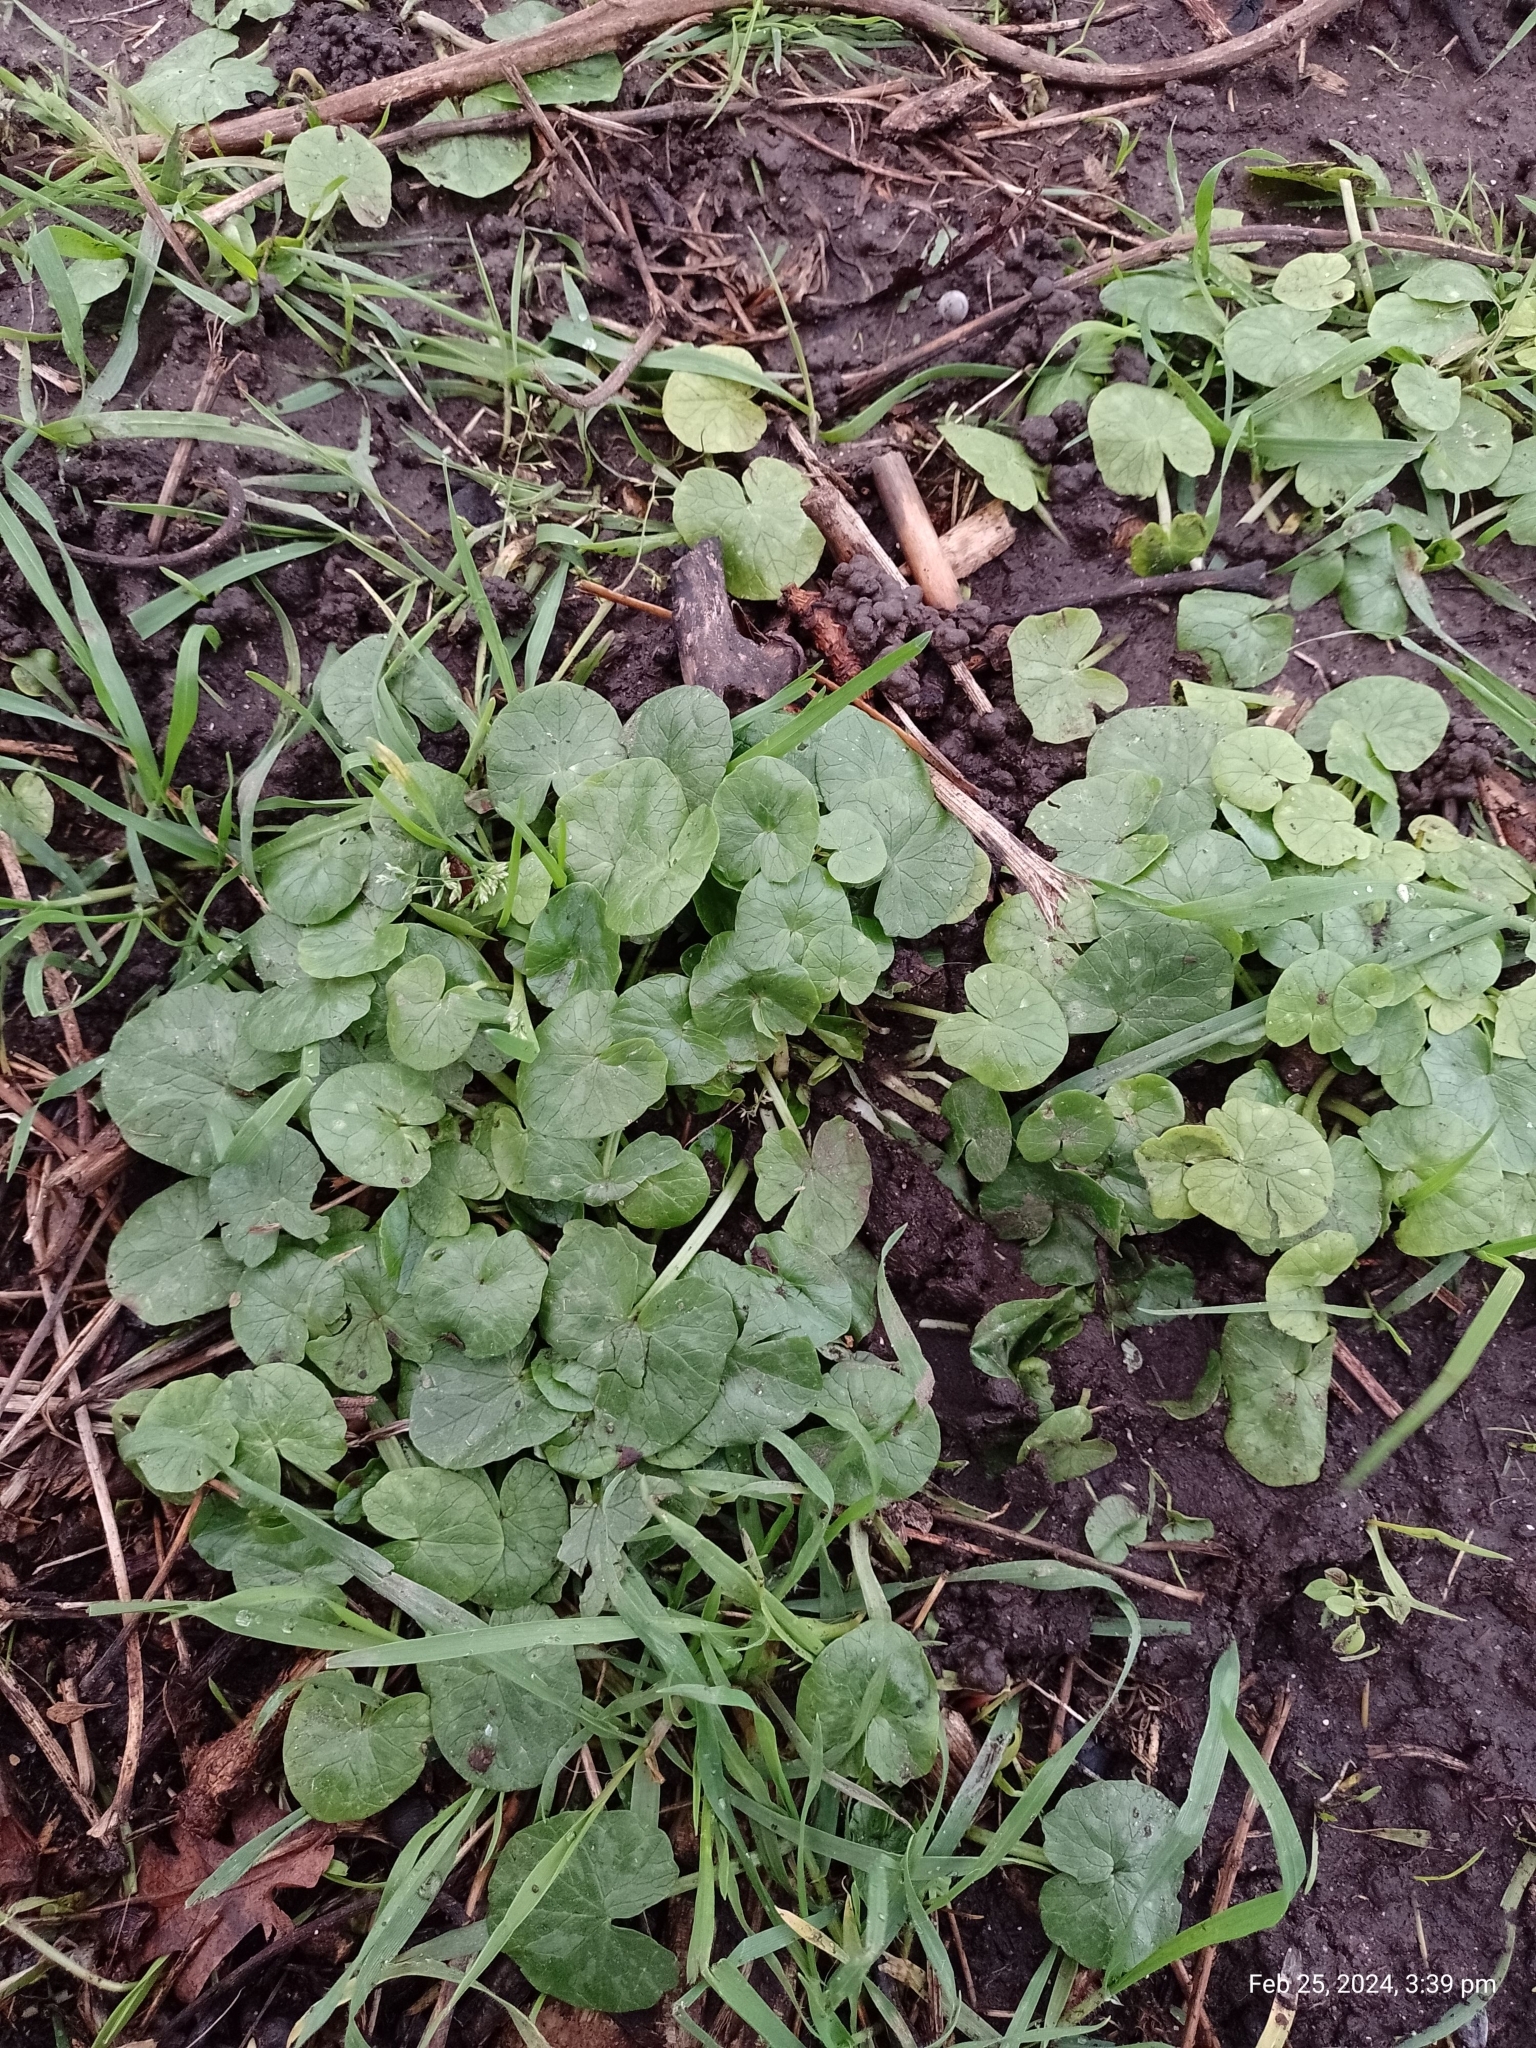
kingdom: Plantae
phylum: Tracheophyta
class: Magnoliopsida
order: Ranunculales
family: Ranunculaceae
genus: Ficaria
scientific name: Ficaria verna
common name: Lesser celandine
